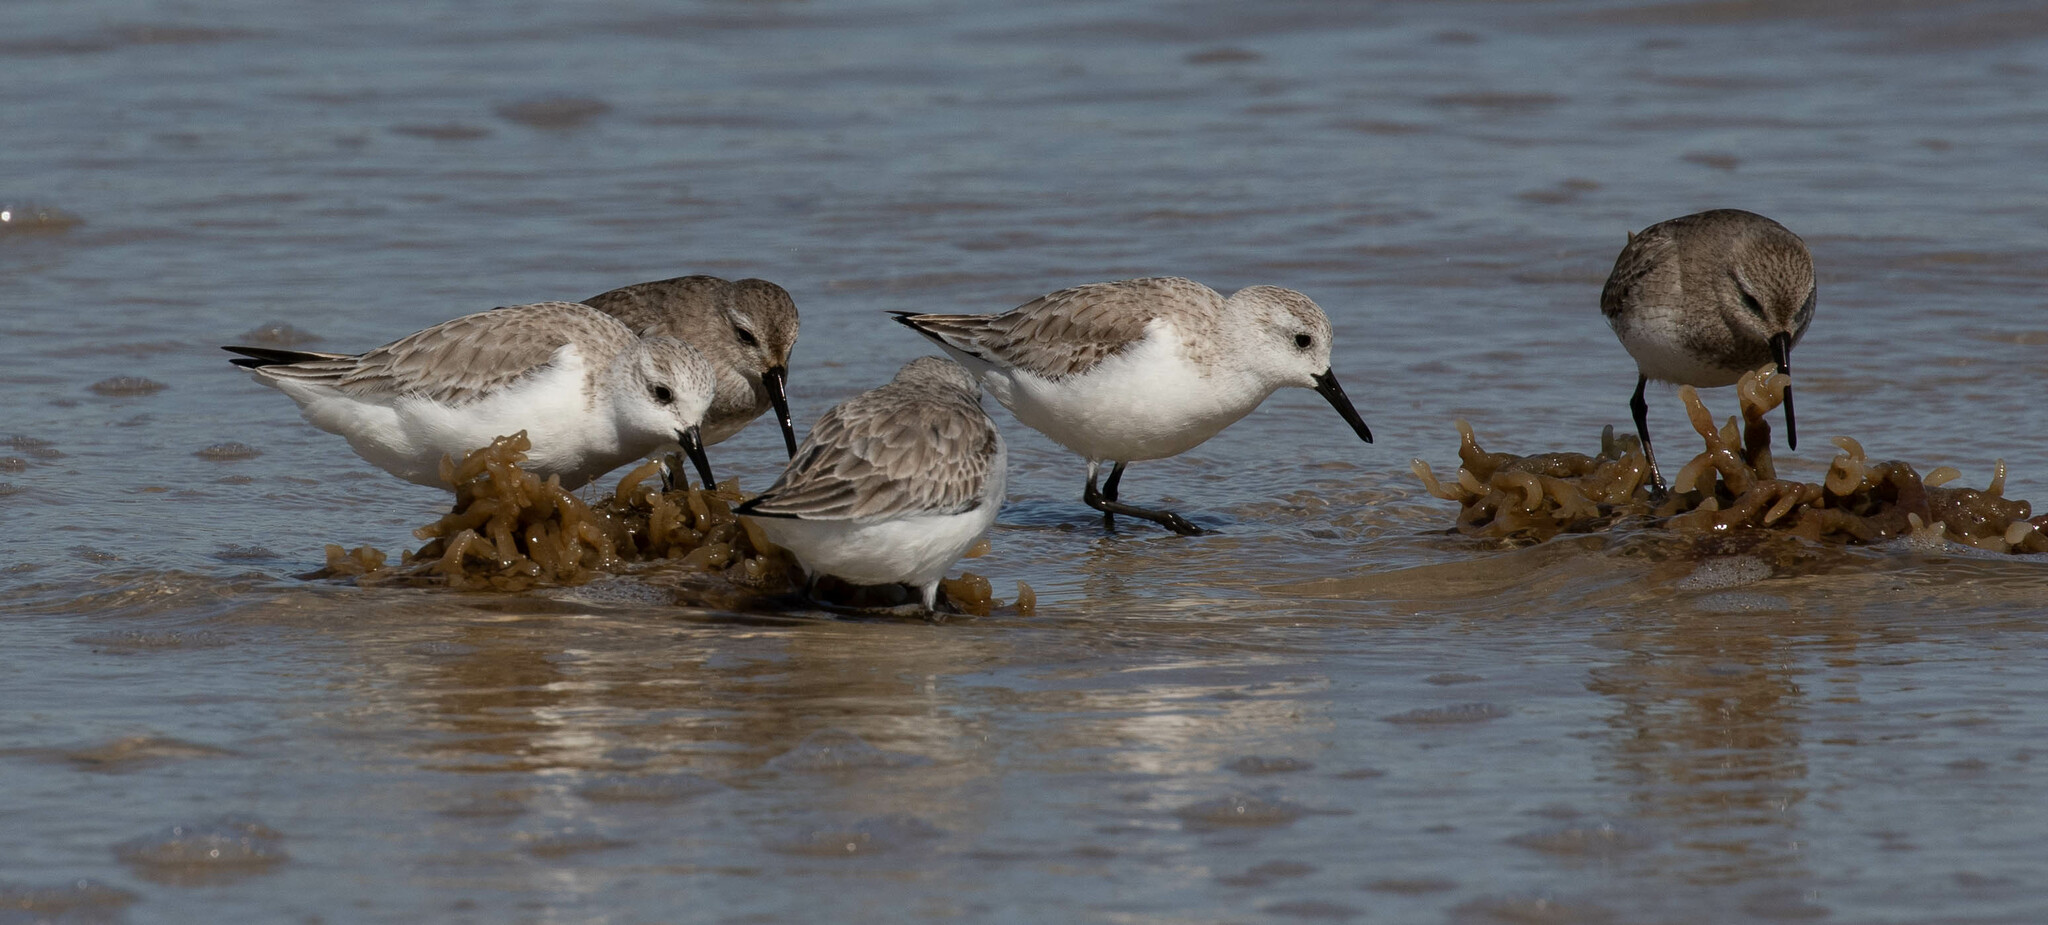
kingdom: Animalia
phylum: Chordata
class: Aves
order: Charadriiformes
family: Scolopacidae
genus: Calidris
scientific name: Calidris alba
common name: Sanderling
